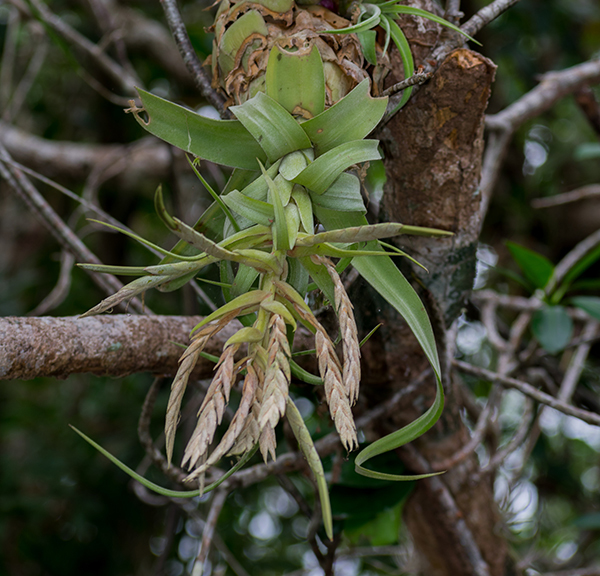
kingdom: Plantae
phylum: Tracheophyta
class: Liliopsida
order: Poales
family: Bromeliaceae
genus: Tillandsia
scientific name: Tillandsia streptophylla
